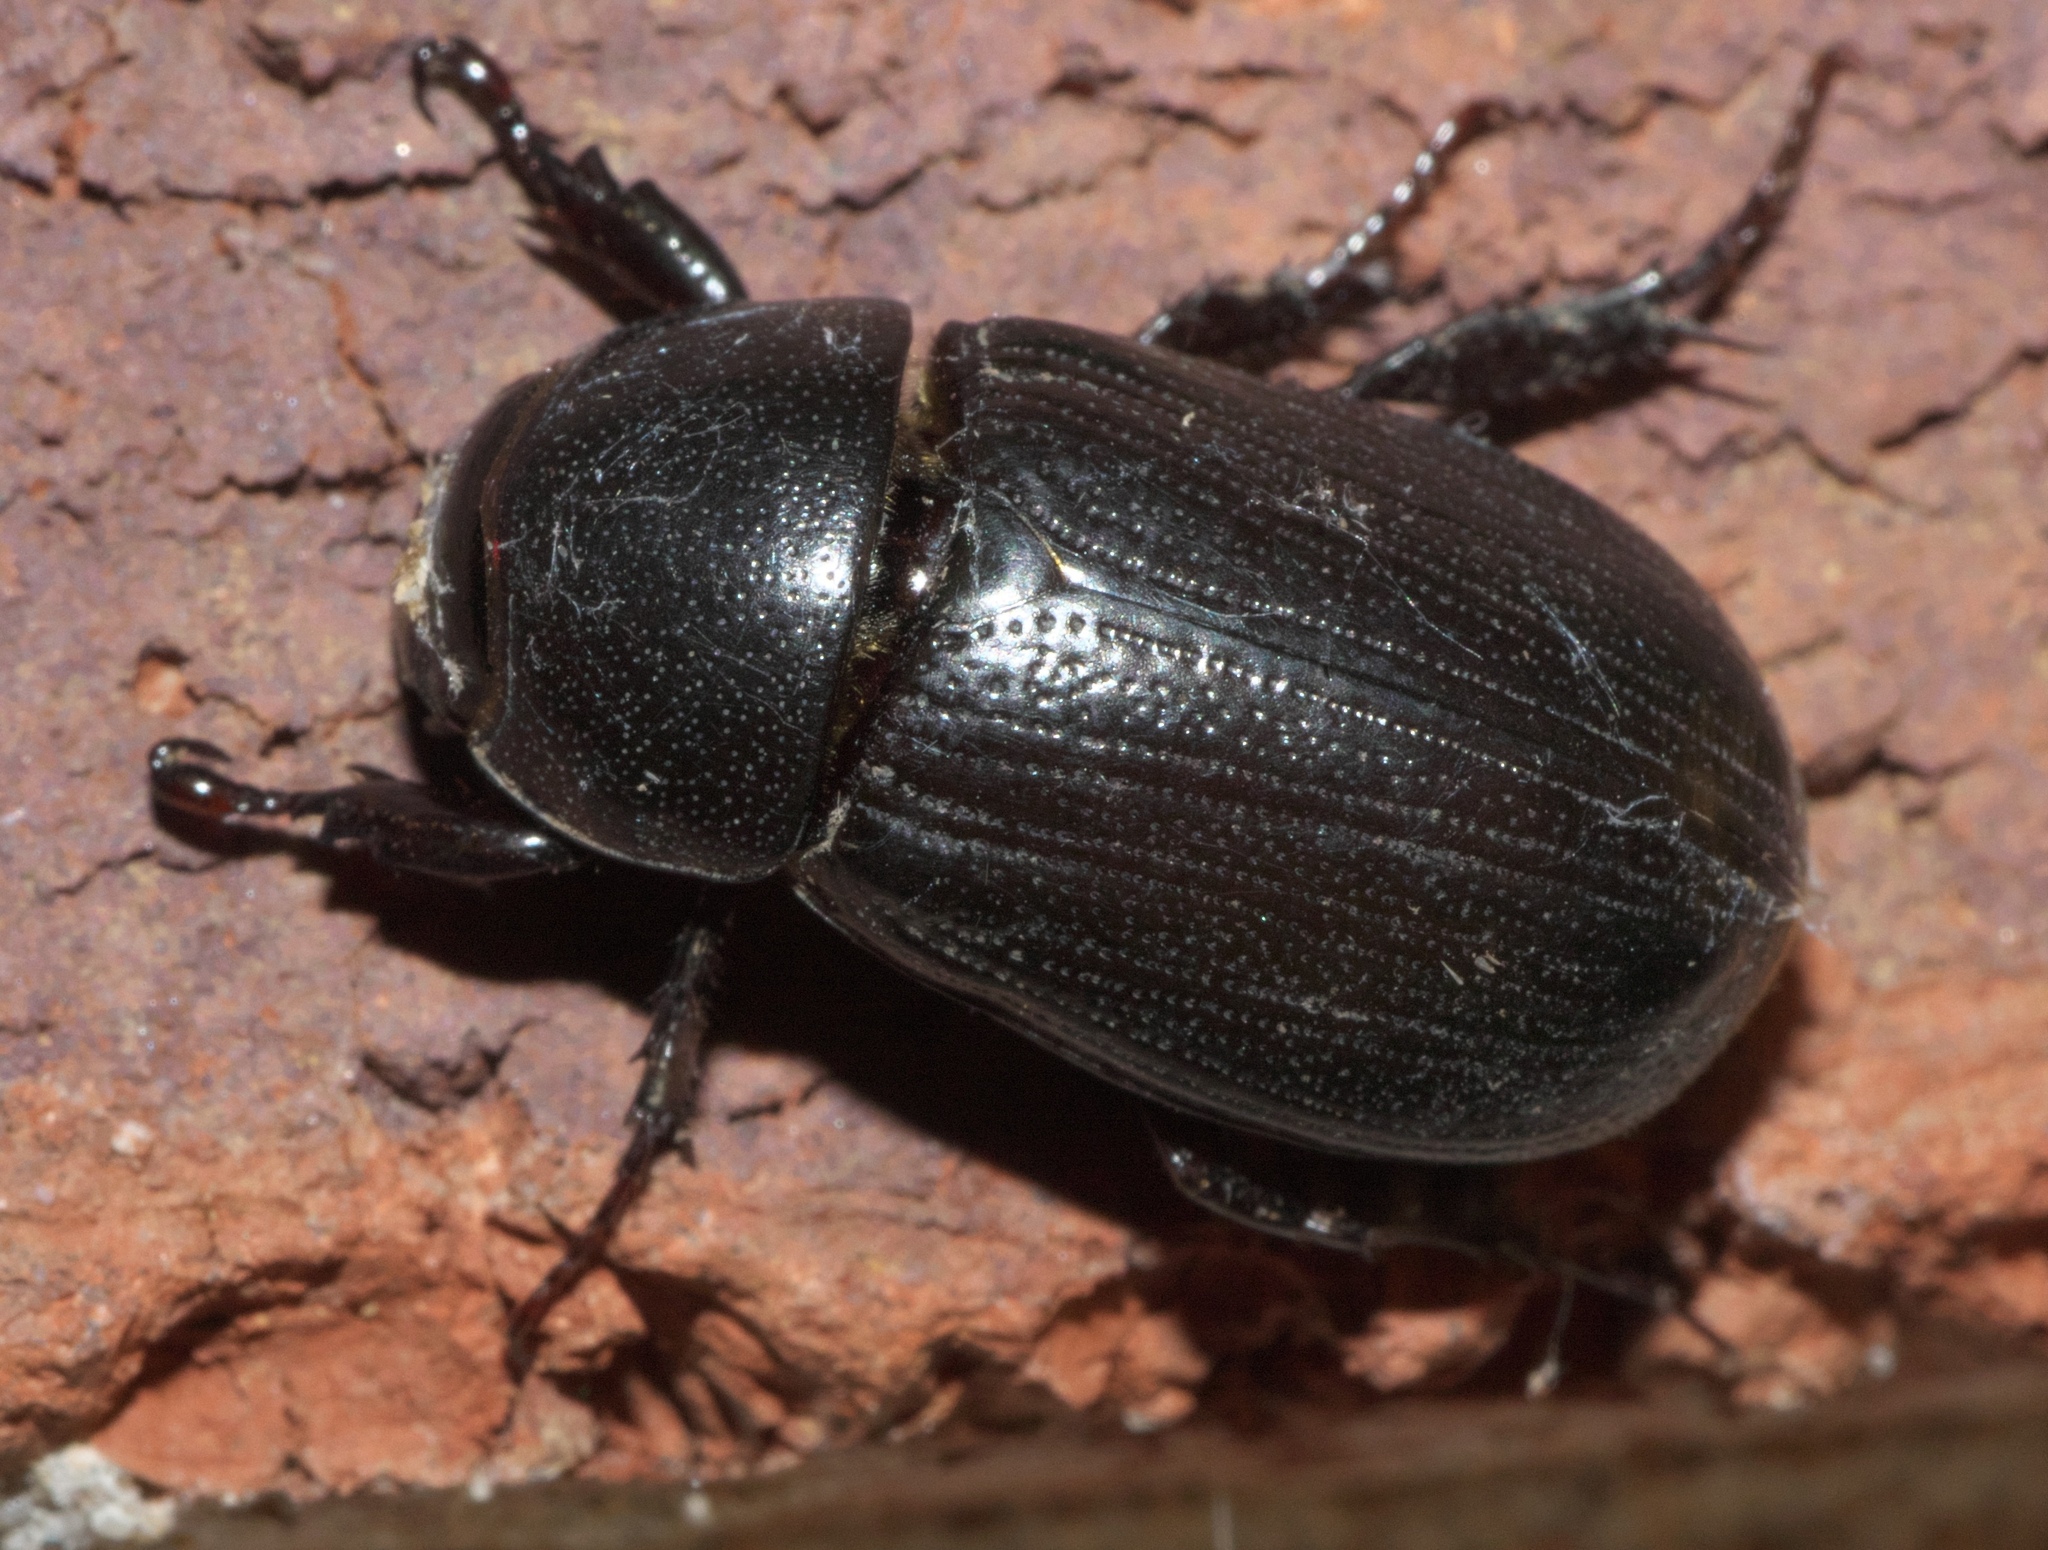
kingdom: Animalia
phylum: Arthropoda
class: Insecta
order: Coleoptera
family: Scarabaeidae
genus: Dyscinetus
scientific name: Dyscinetus morator
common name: Rice beetle
